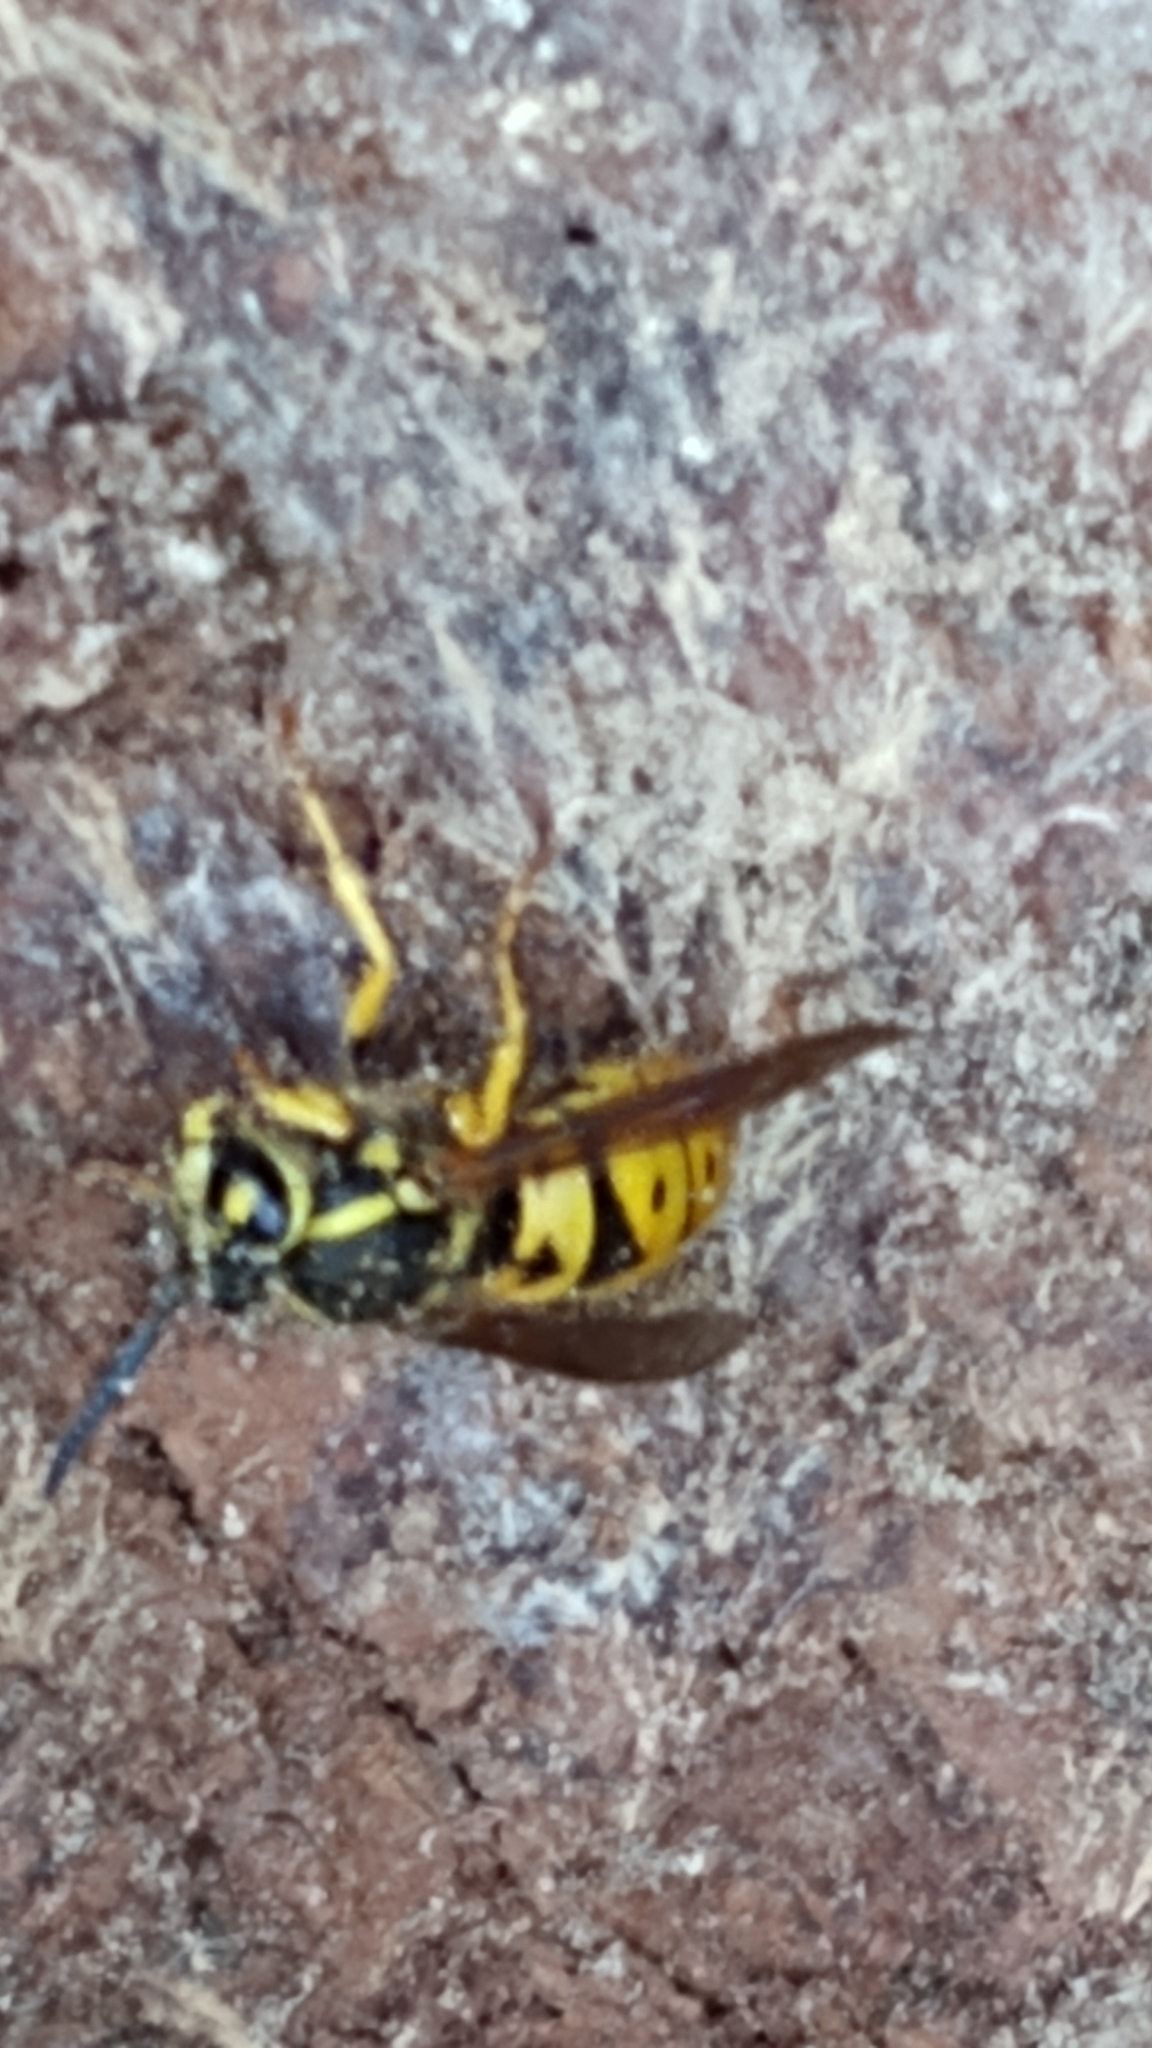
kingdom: Animalia
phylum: Arthropoda
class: Insecta
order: Hymenoptera
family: Vespidae
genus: Vespula
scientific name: Vespula maculifrons
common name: Eastern yellowjacket
